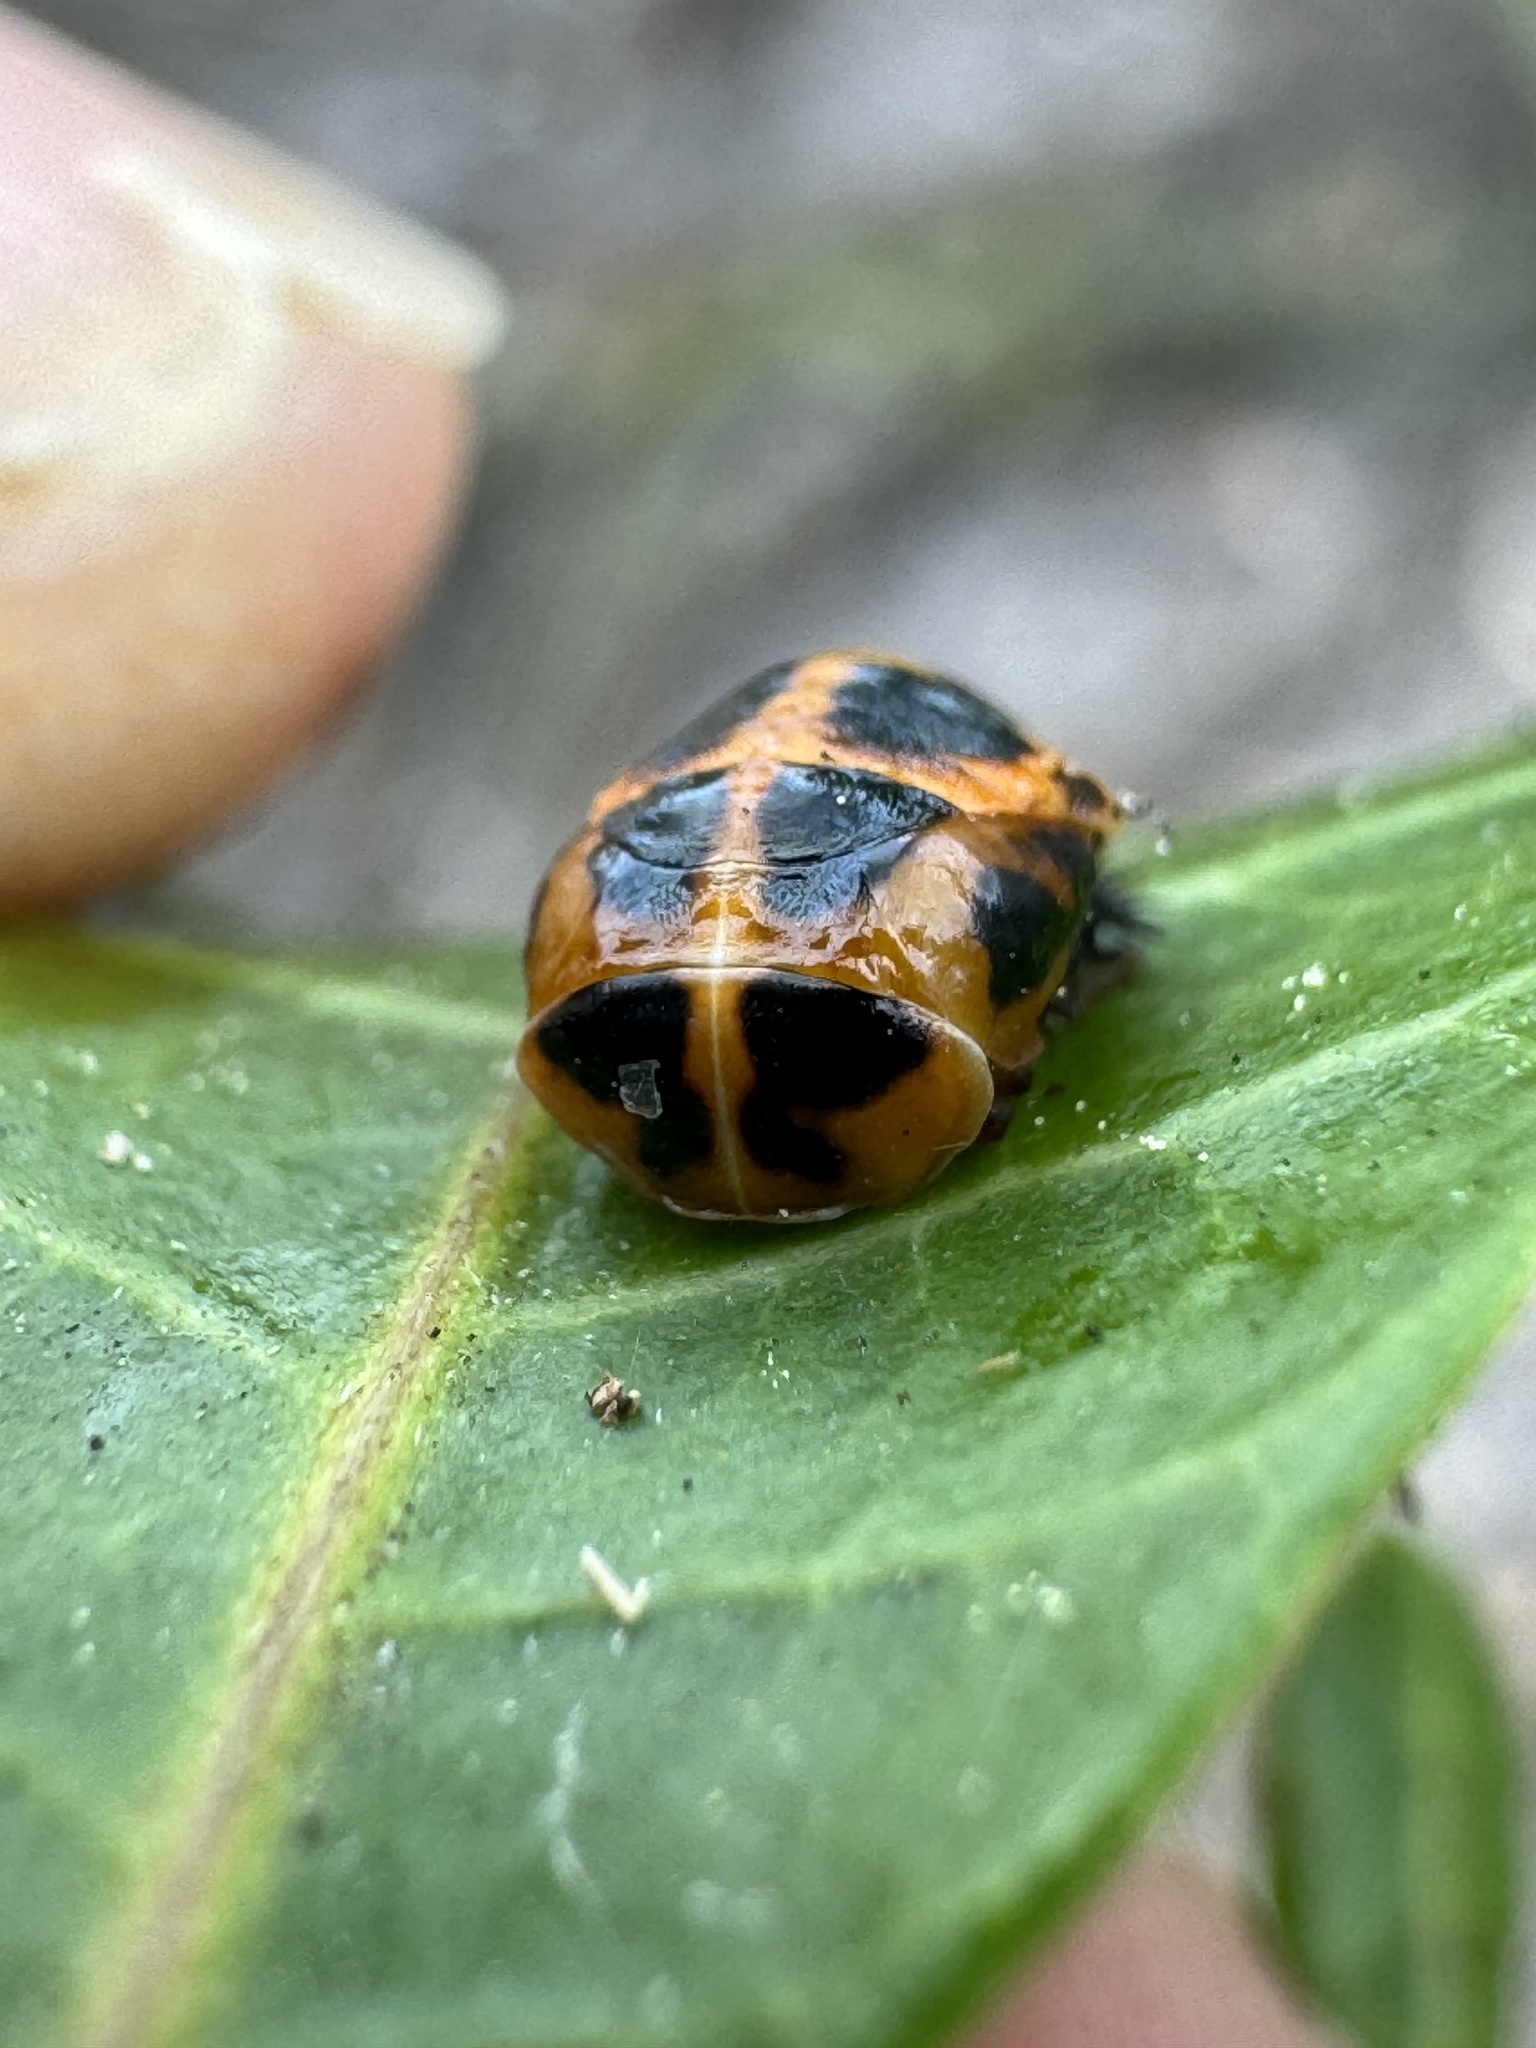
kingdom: Animalia
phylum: Arthropoda
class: Insecta
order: Coleoptera
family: Coccinellidae
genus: Harmonia
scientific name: Harmonia axyridis
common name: Harlequin ladybird
